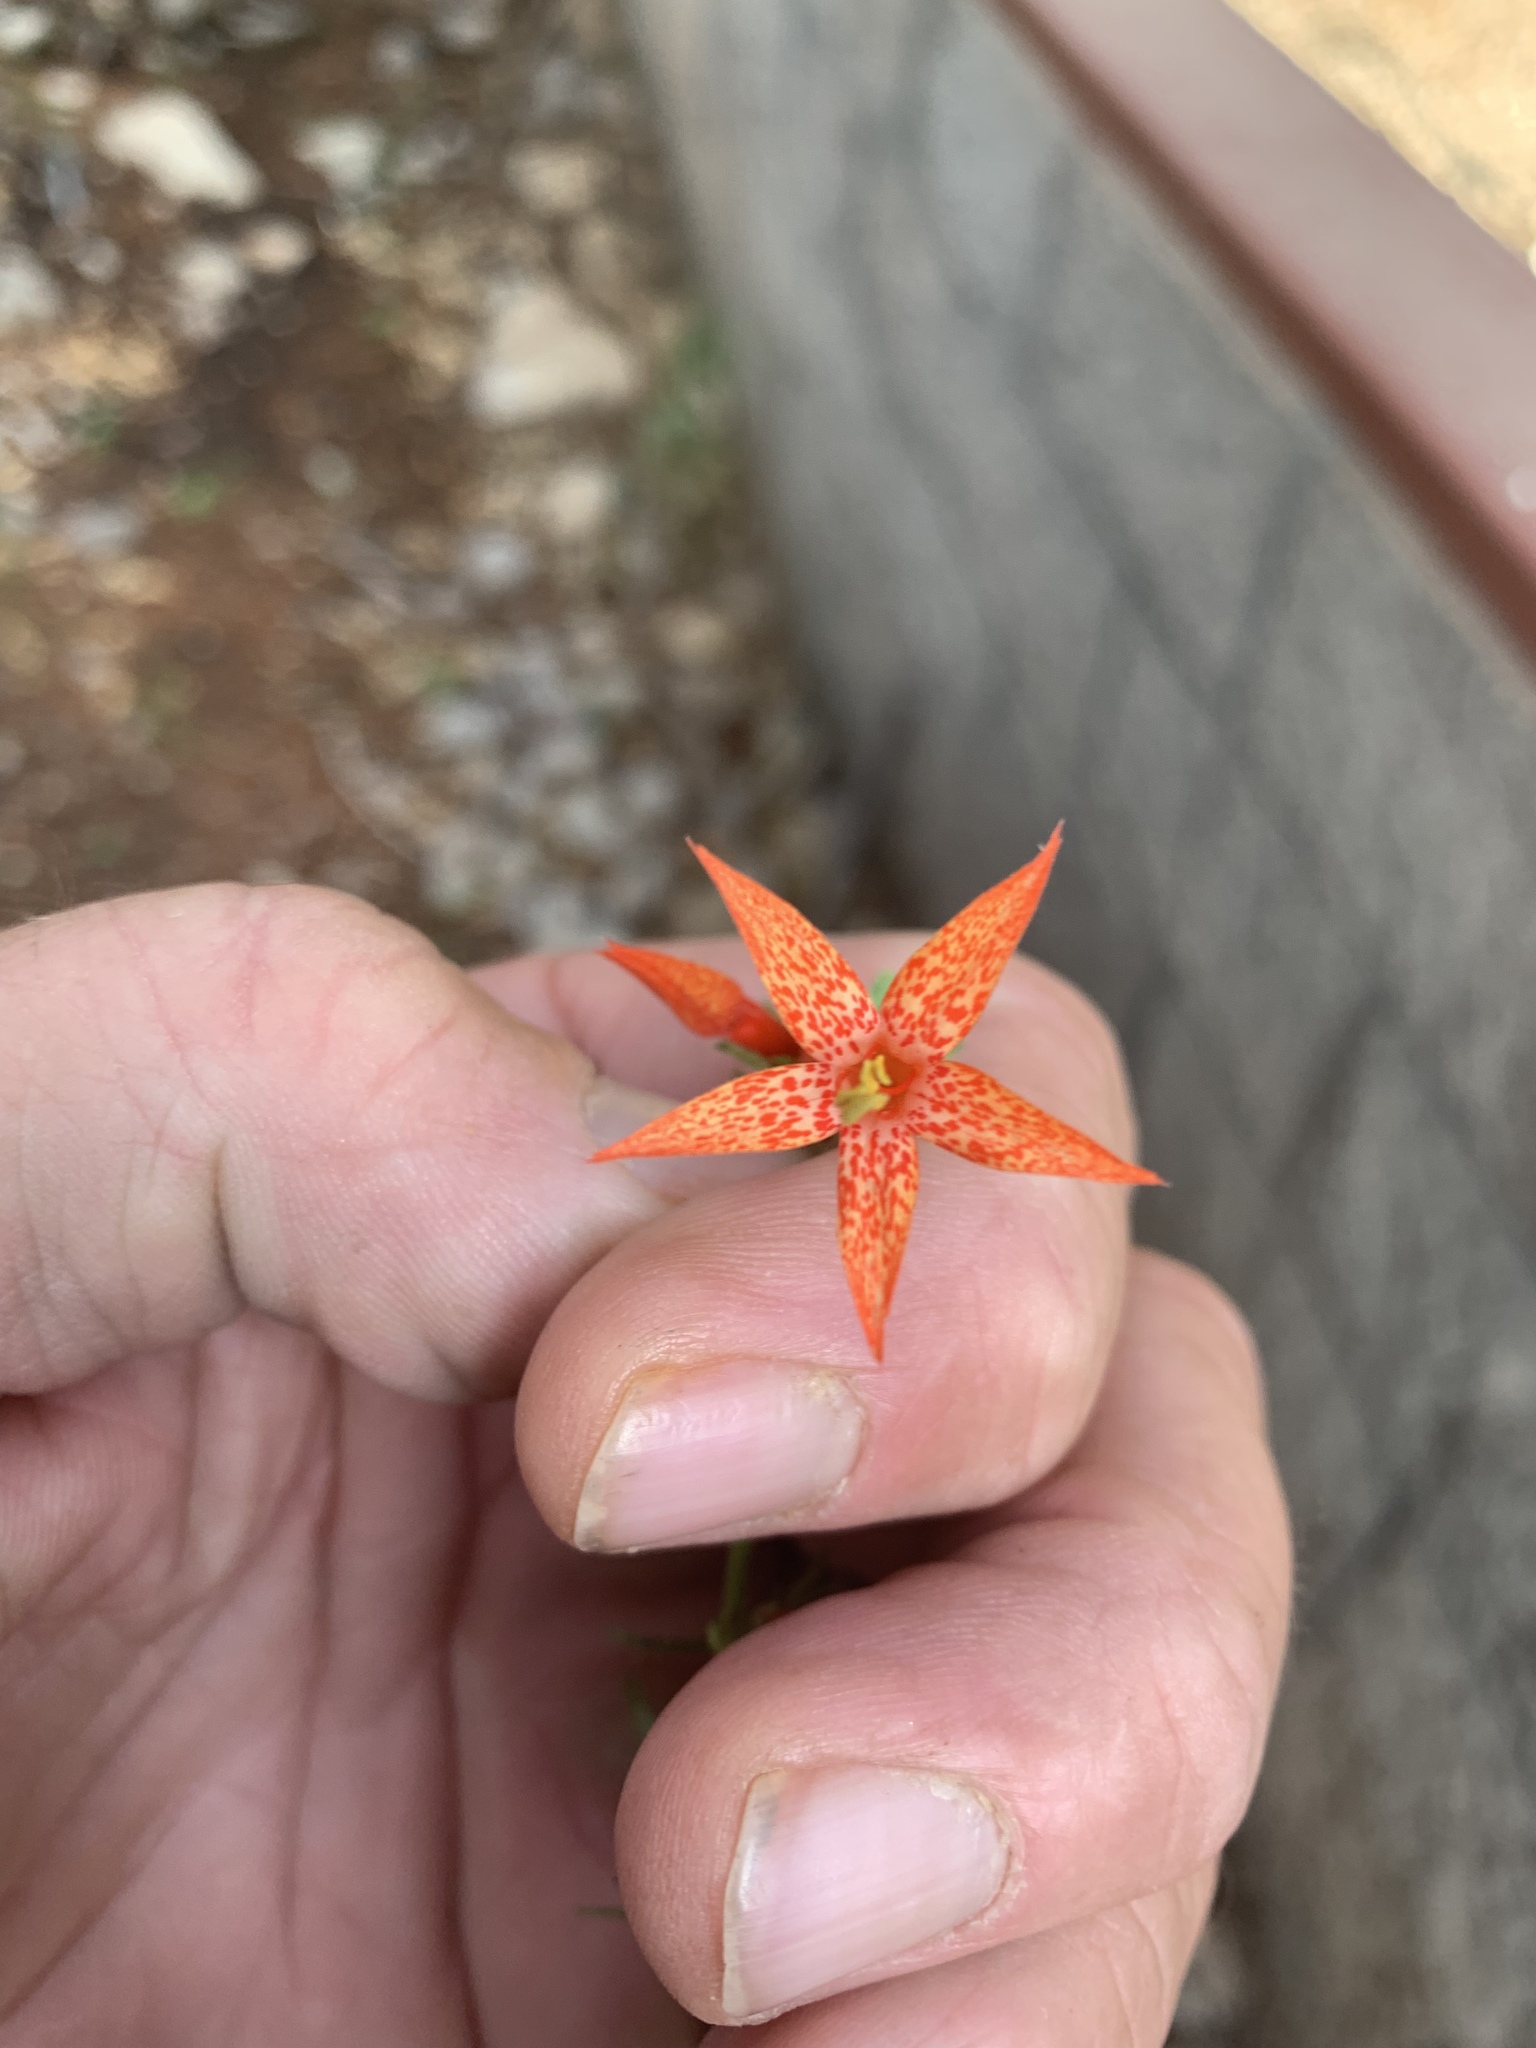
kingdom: Plantae
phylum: Tracheophyta
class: Magnoliopsida
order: Ericales
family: Polemoniaceae
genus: Ipomopsis
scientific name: Ipomopsis aggregata
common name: Scarlet gilia
